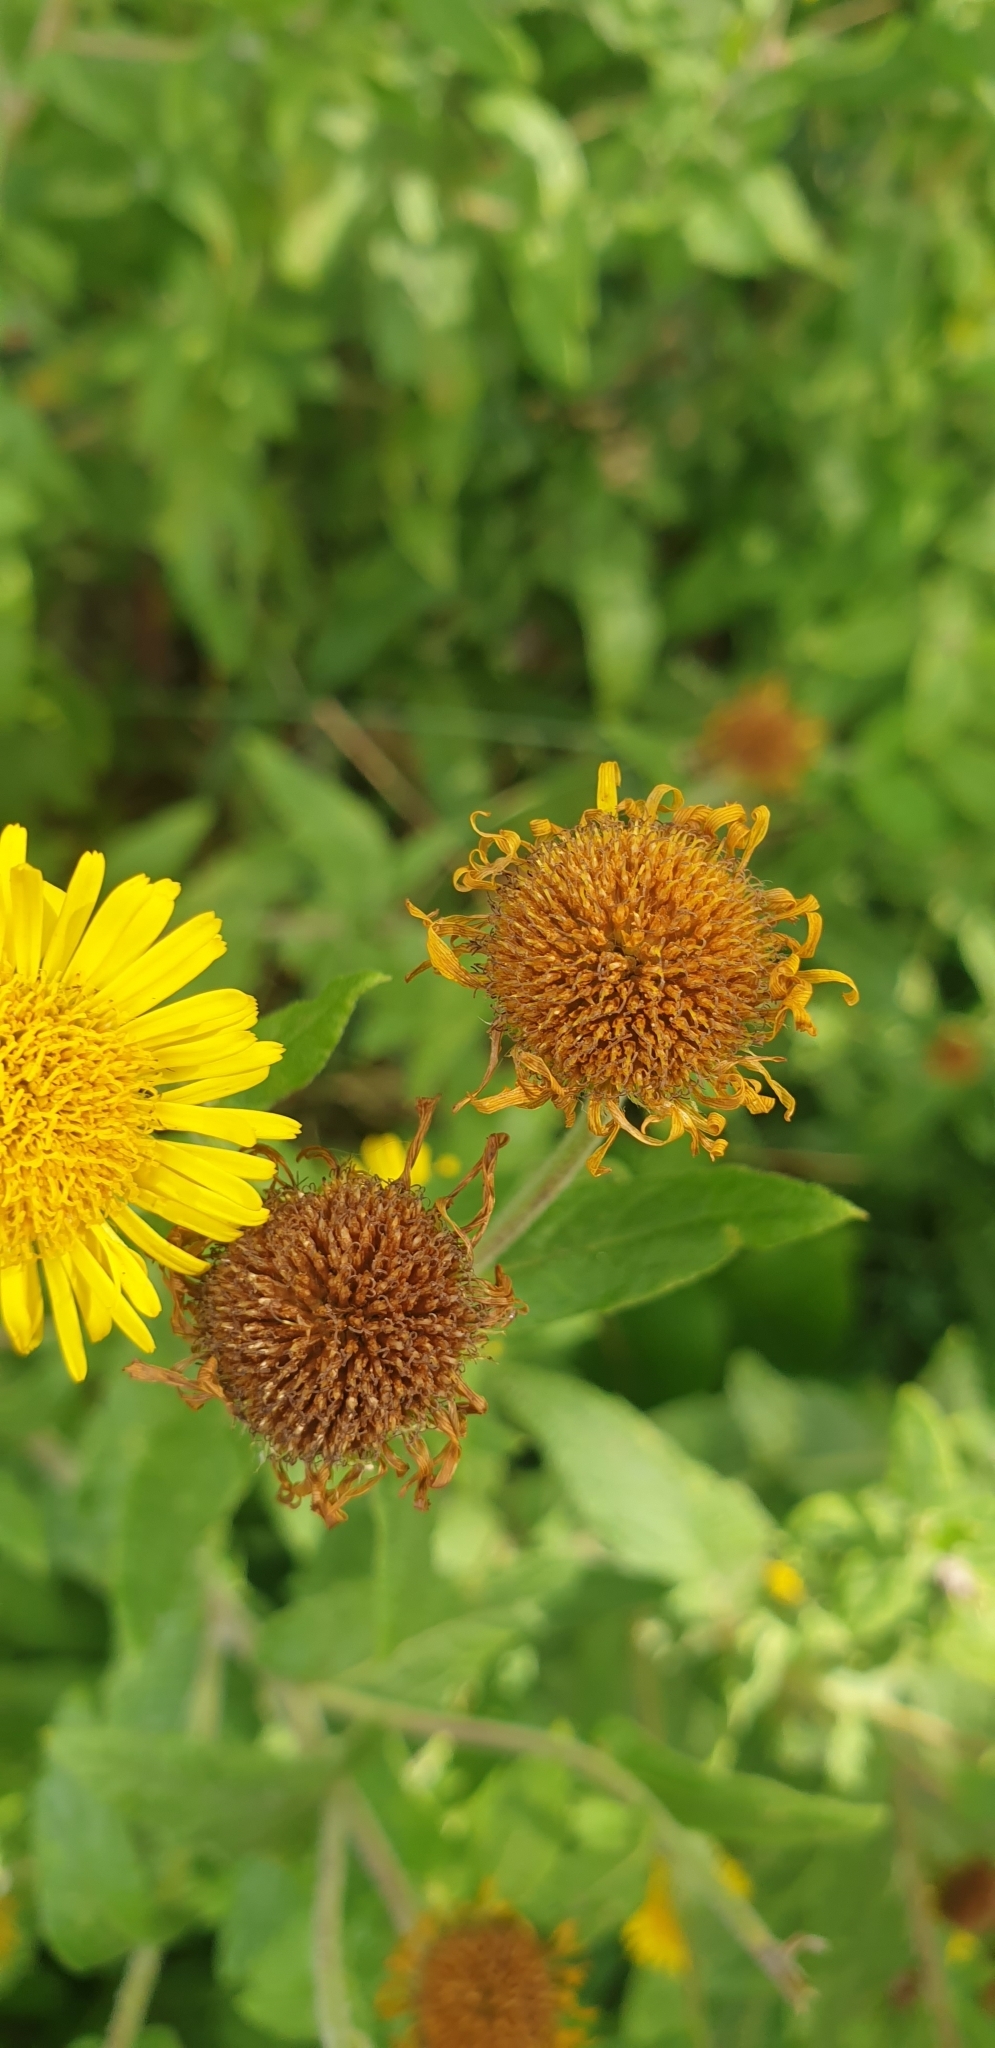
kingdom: Plantae
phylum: Tracheophyta
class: Magnoliopsida
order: Asterales
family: Asteraceae
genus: Pulicaria
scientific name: Pulicaria dysenterica
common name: Common fleabane
